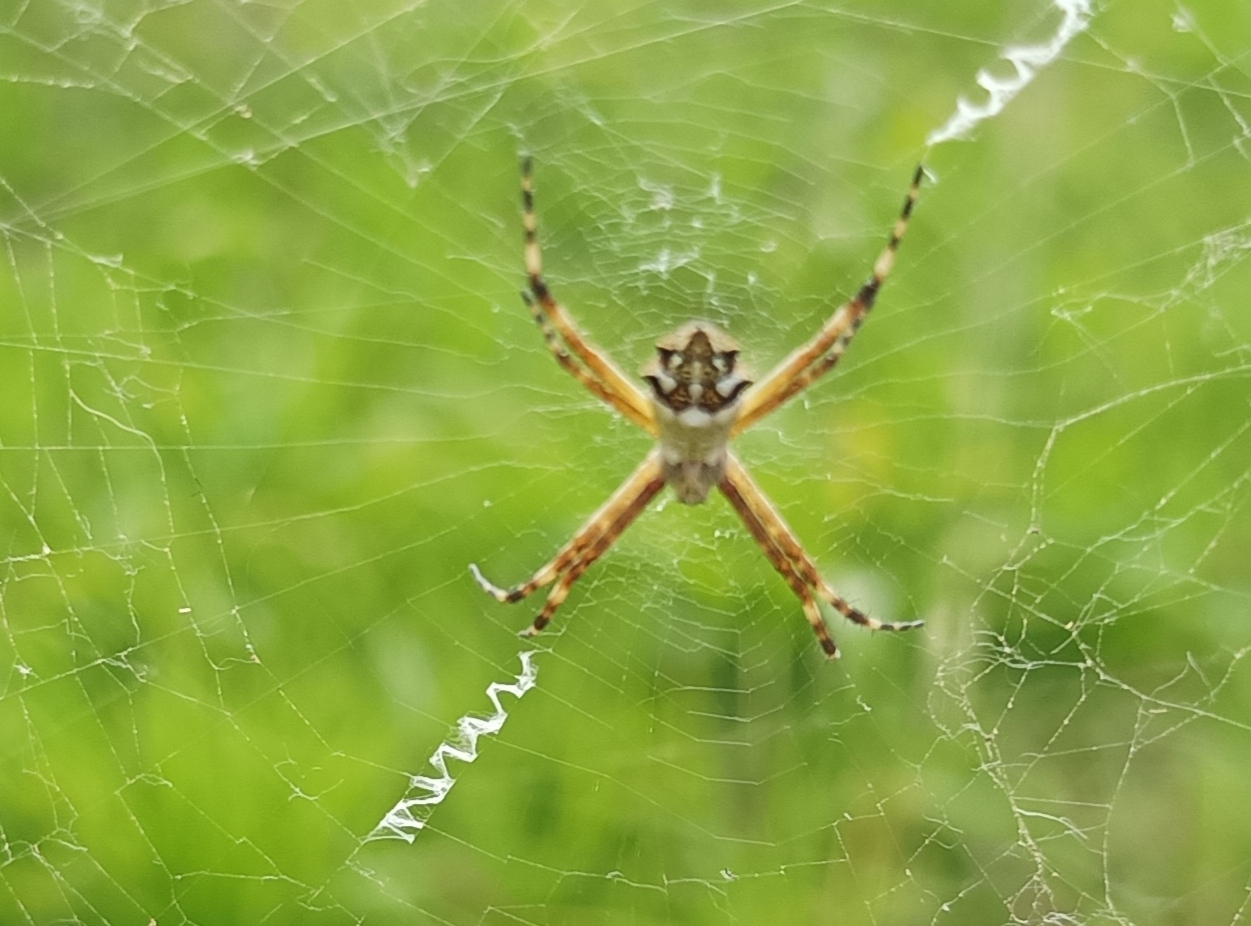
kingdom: Animalia
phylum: Arthropoda
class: Arachnida
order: Araneae
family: Araneidae
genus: Argiope
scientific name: Argiope argentata
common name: Orb weavers
